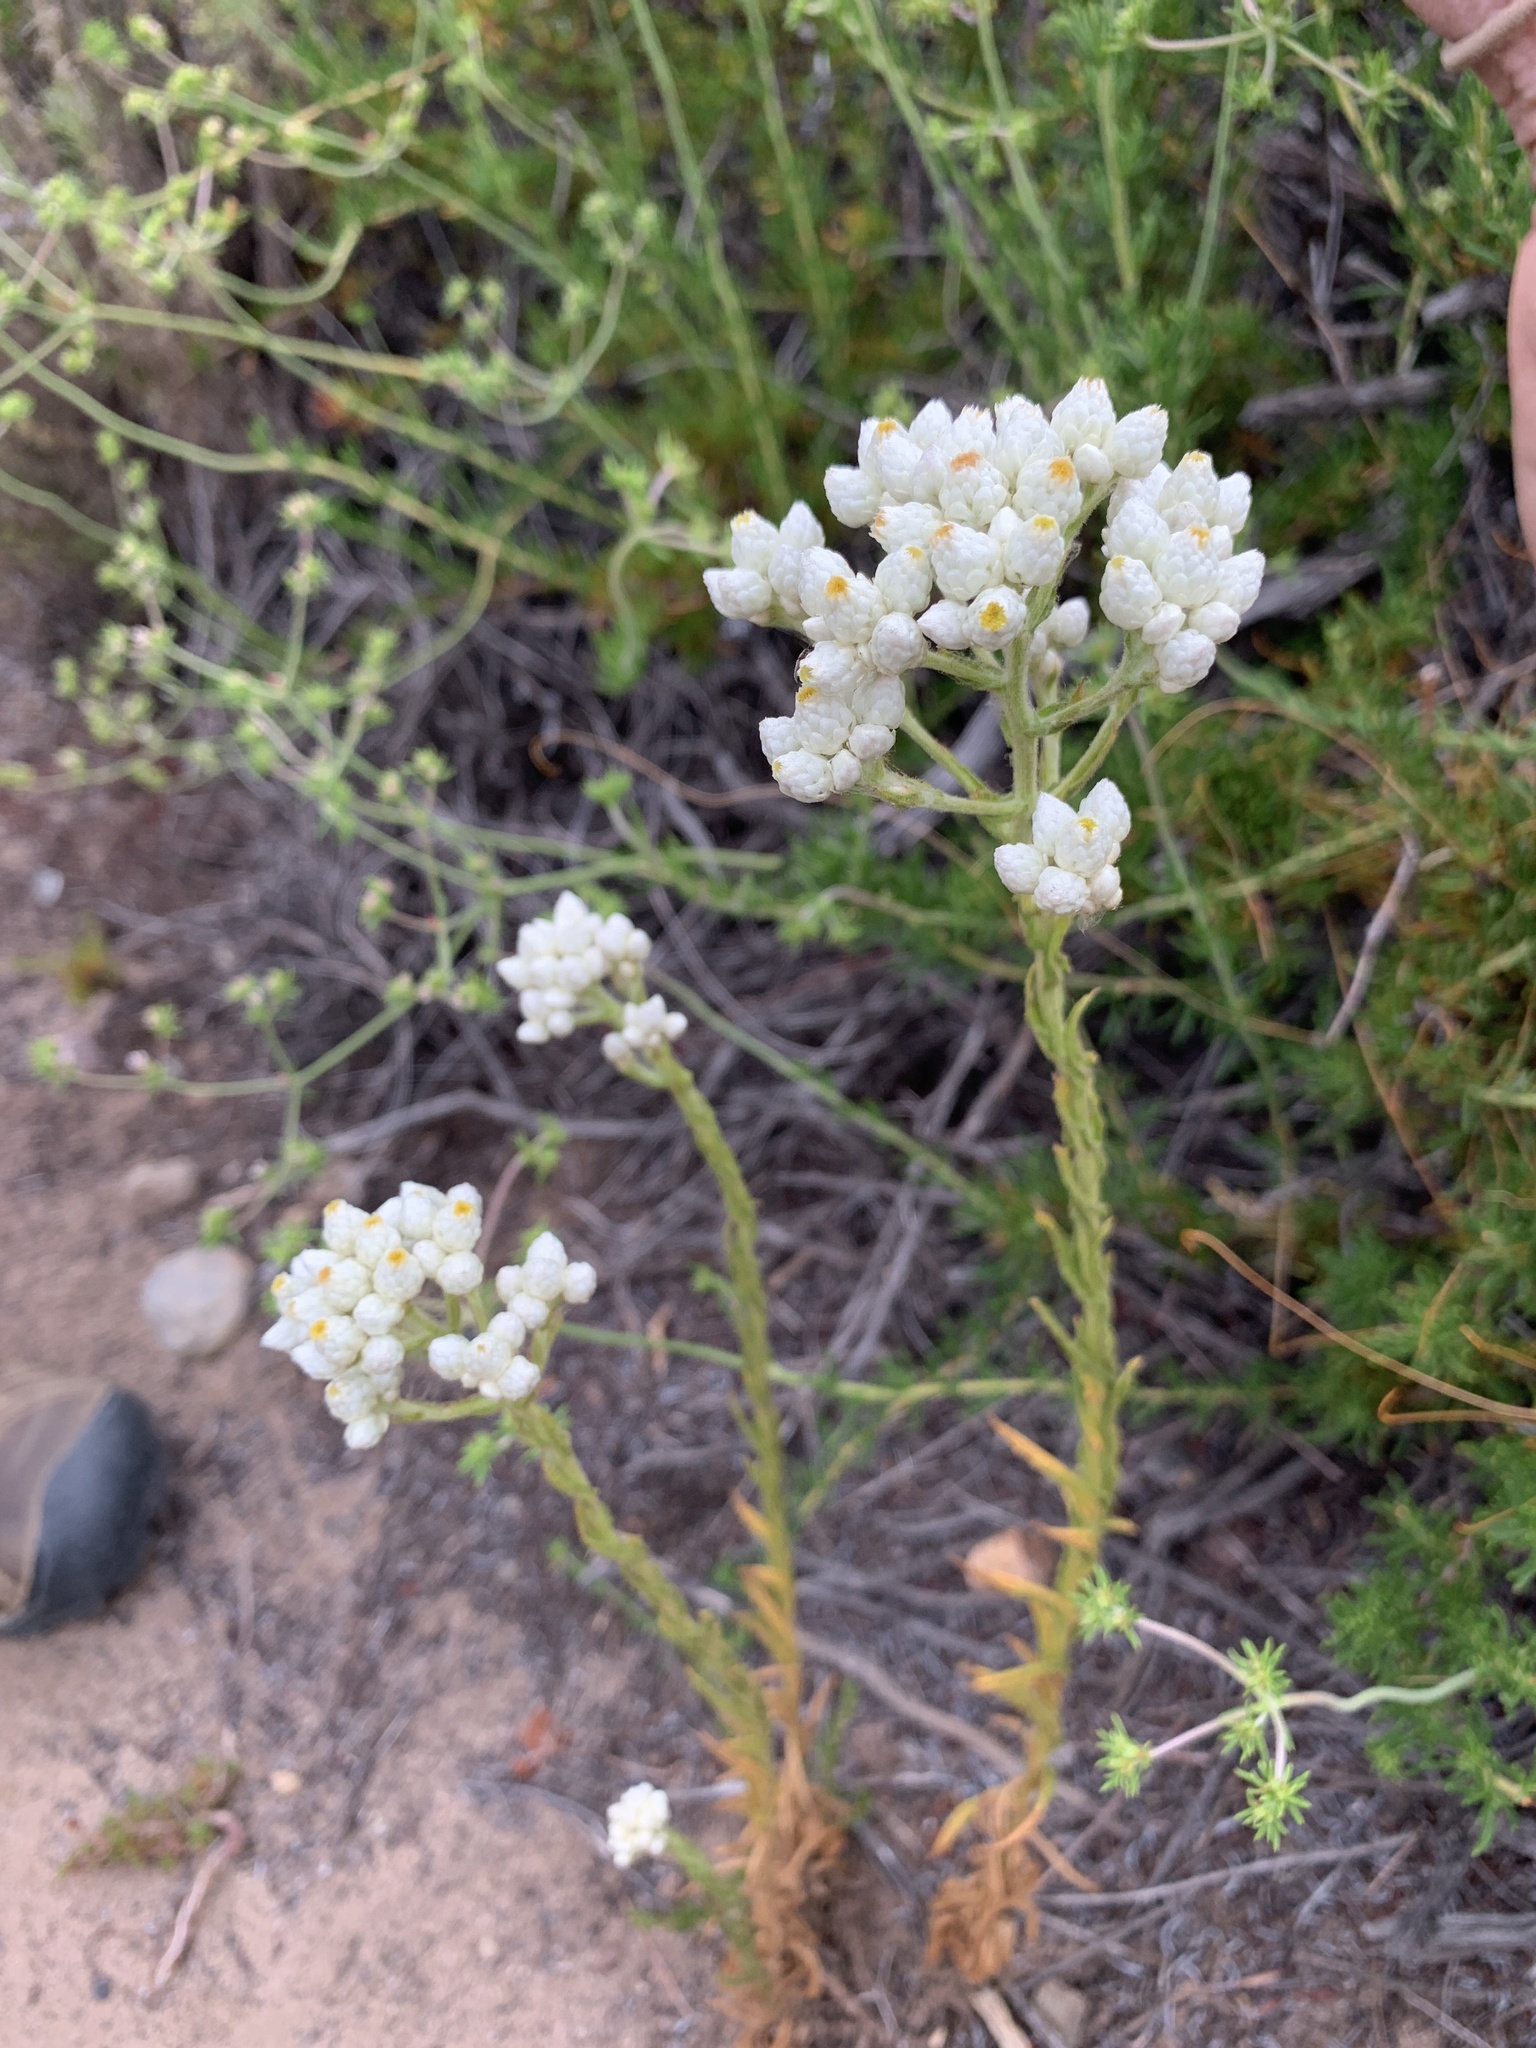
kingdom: Plantae
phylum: Tracheophyta
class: Magnoliopsida
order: Asterales
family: Asteraceae
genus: Pseudognaphalium
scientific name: Pseudognaphalium californicum
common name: California rabbit-tobacco
